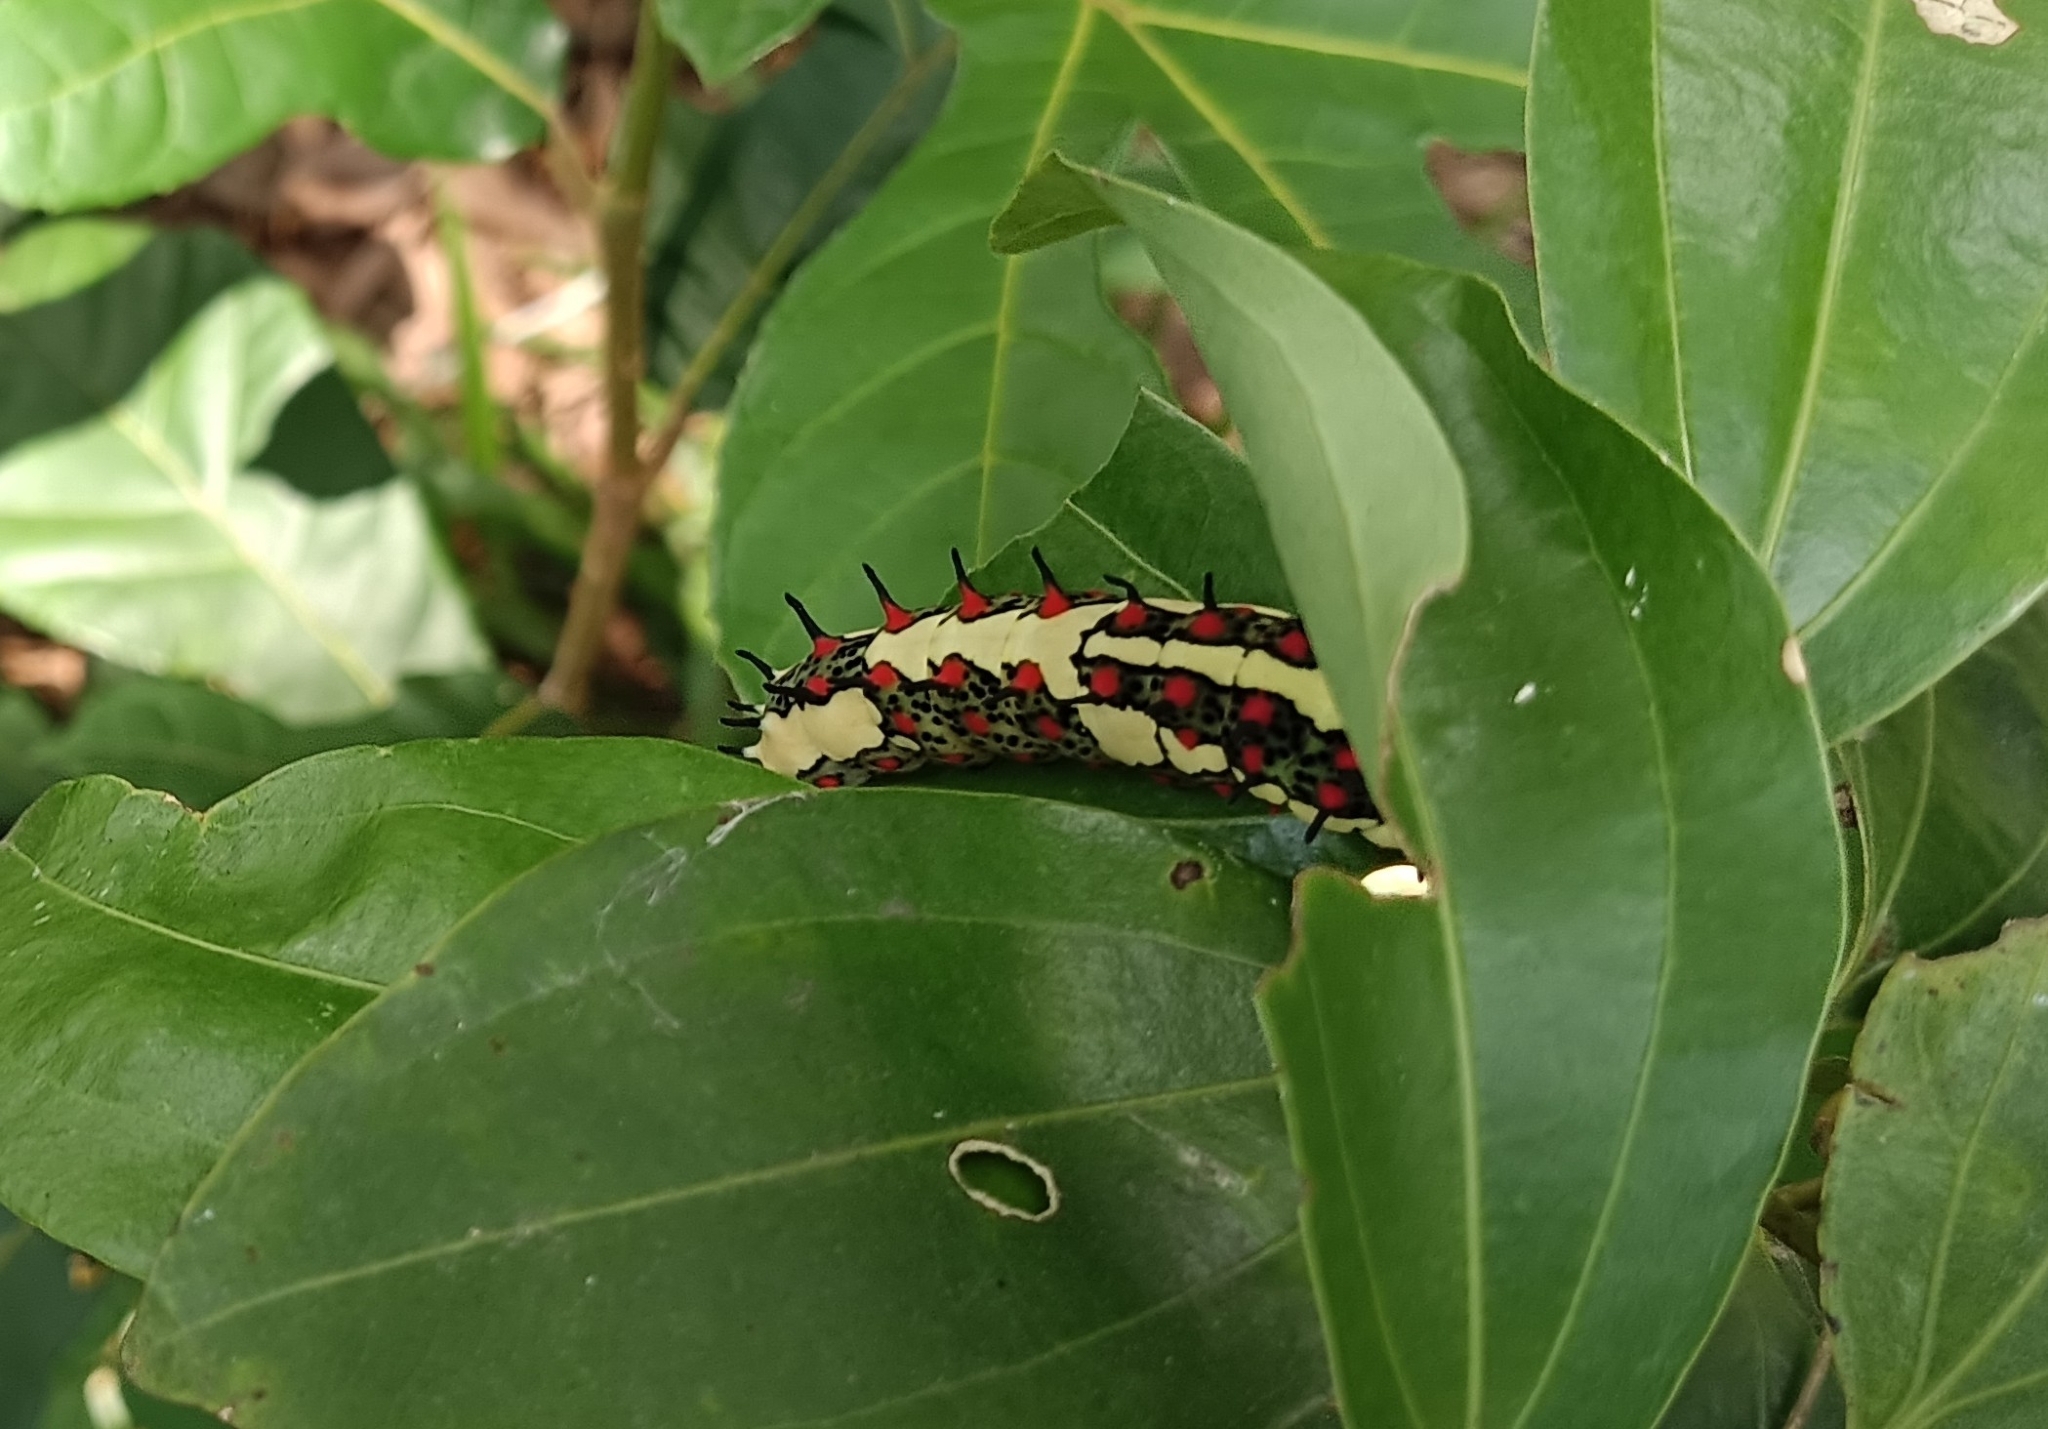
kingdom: Animalia
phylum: Arthropoda
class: Insecta
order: Lepidoptera
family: Papilionidae
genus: Chilasa
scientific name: Chilasa clytia
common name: Common mime
